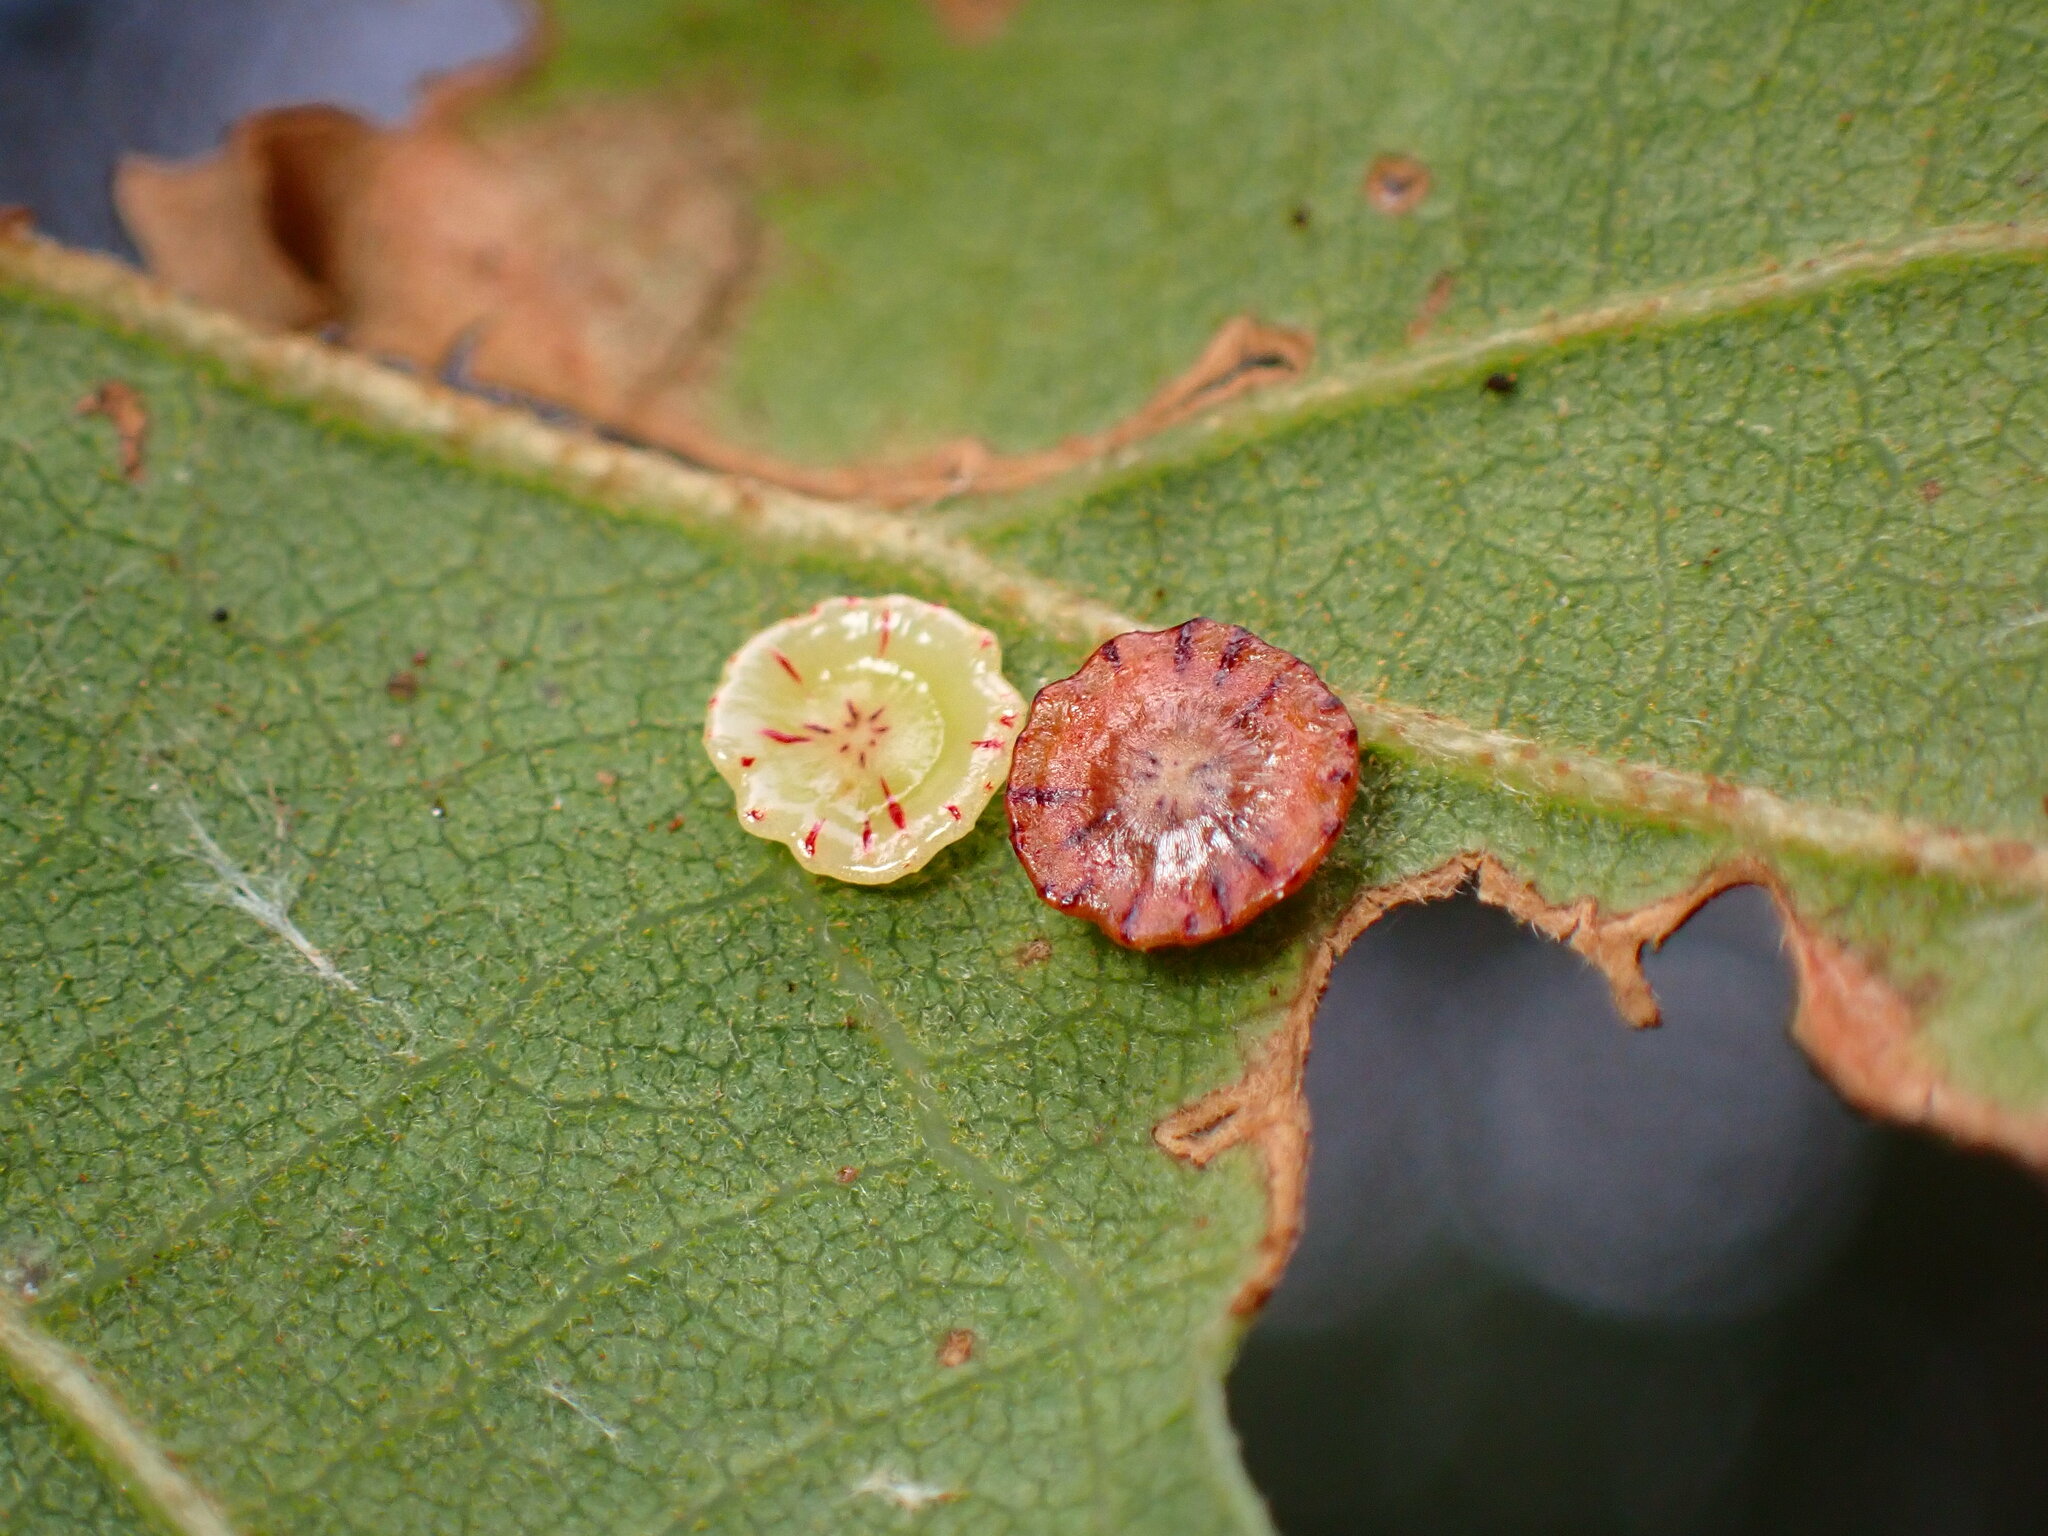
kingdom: Animalia
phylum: Arthropoda
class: Insecta
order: Hymenoptera
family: Cynipidae
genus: Andricus
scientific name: Andricus
